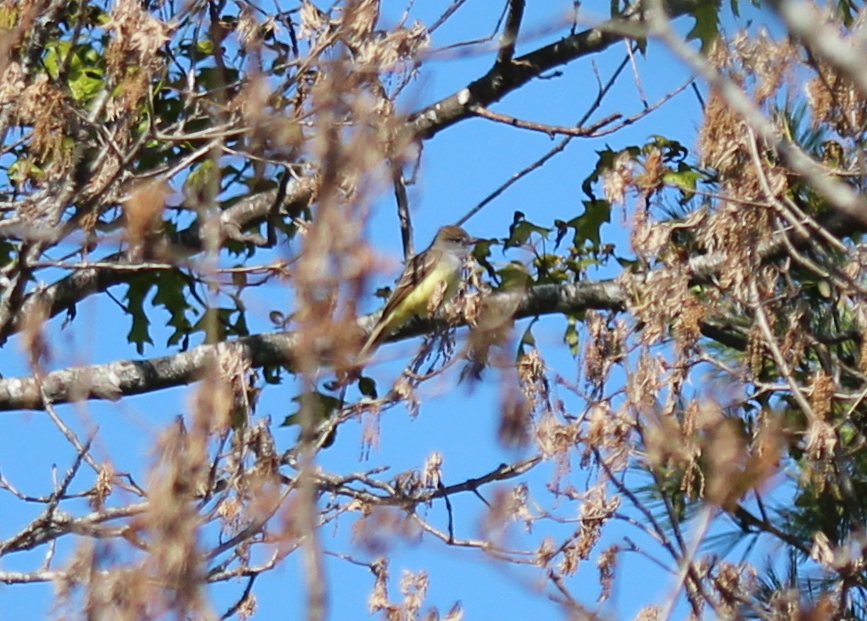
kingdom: Animalia
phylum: Chordata
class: Aves
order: Passeriformes
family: Tyrannidae
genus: Myiarchus
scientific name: Myiarchus crinitus
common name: Great crested flycatcher
